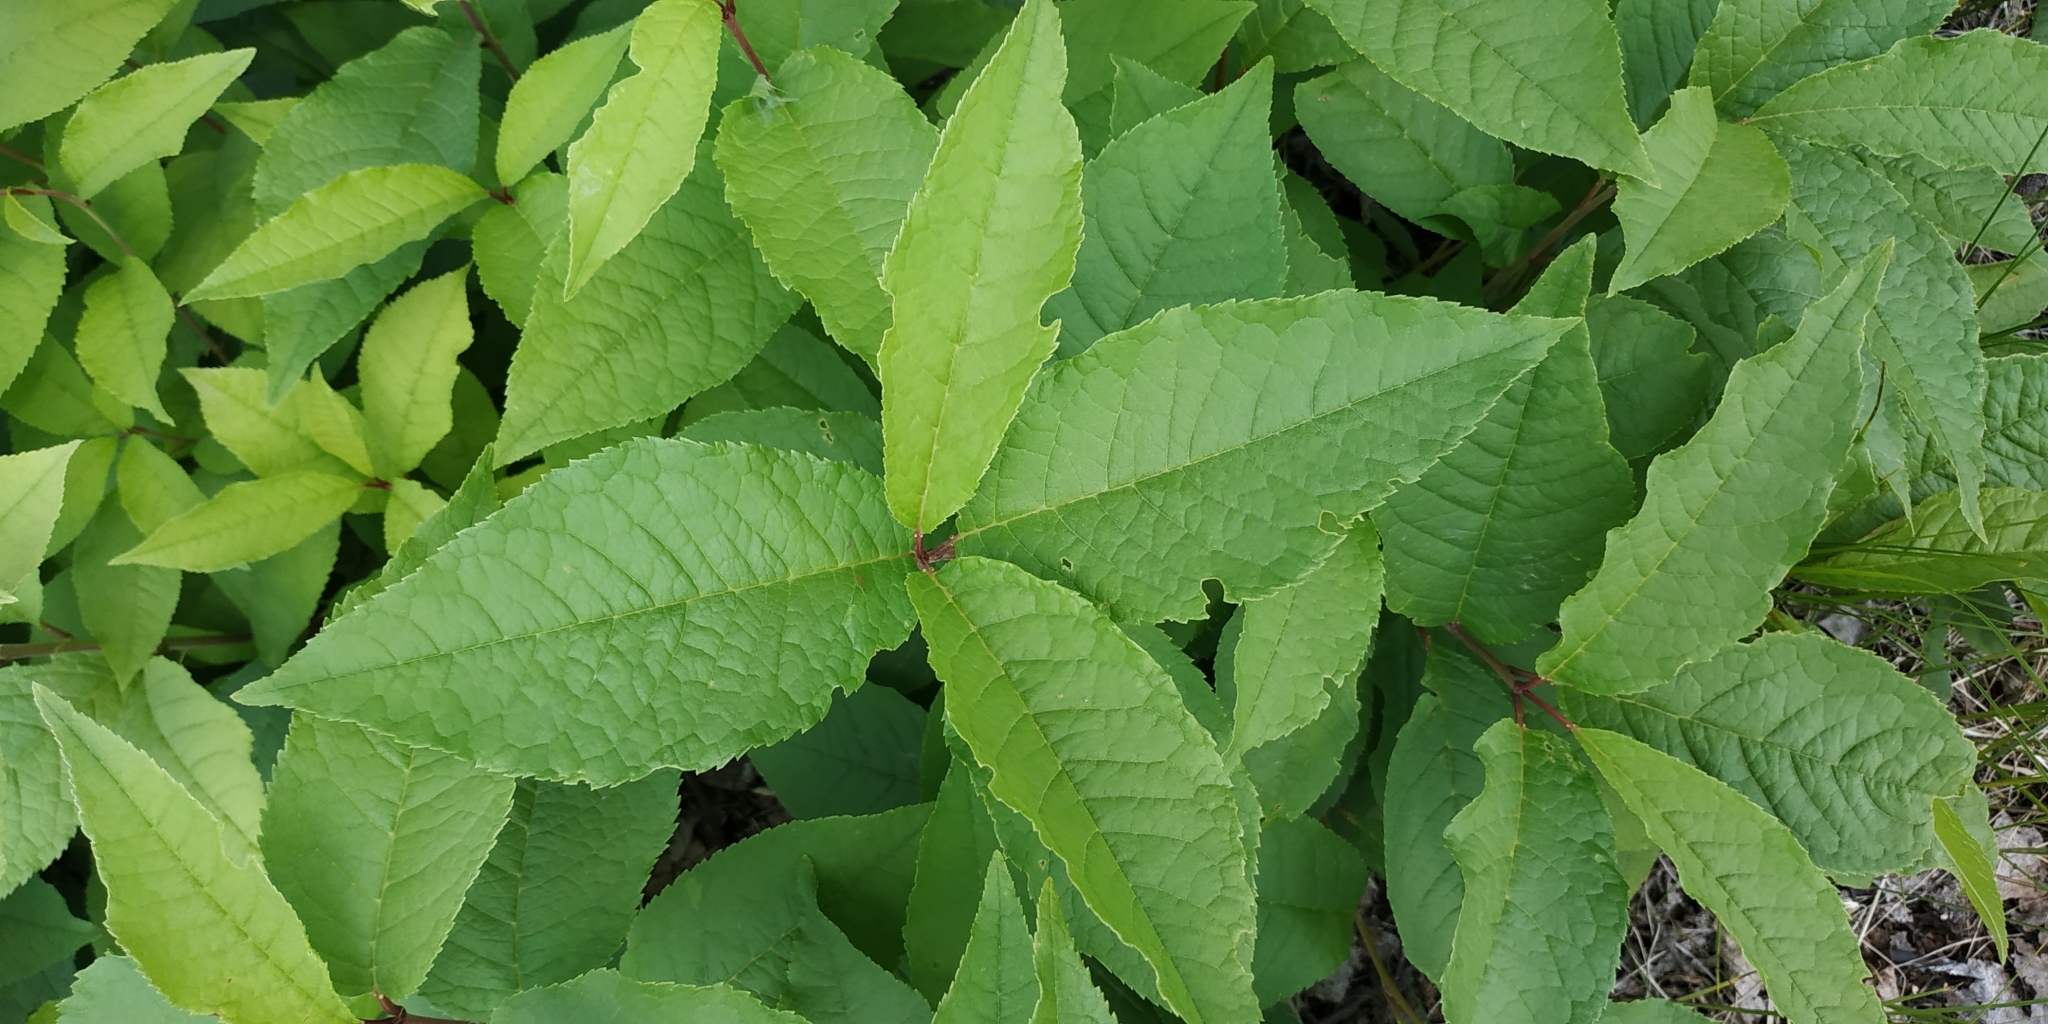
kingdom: Plantae
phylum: Tracheophyta
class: Magnoliopsida
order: Rosales
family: Rosaceae
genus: Prunus
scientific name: Prunus padus
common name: Bird cherry
